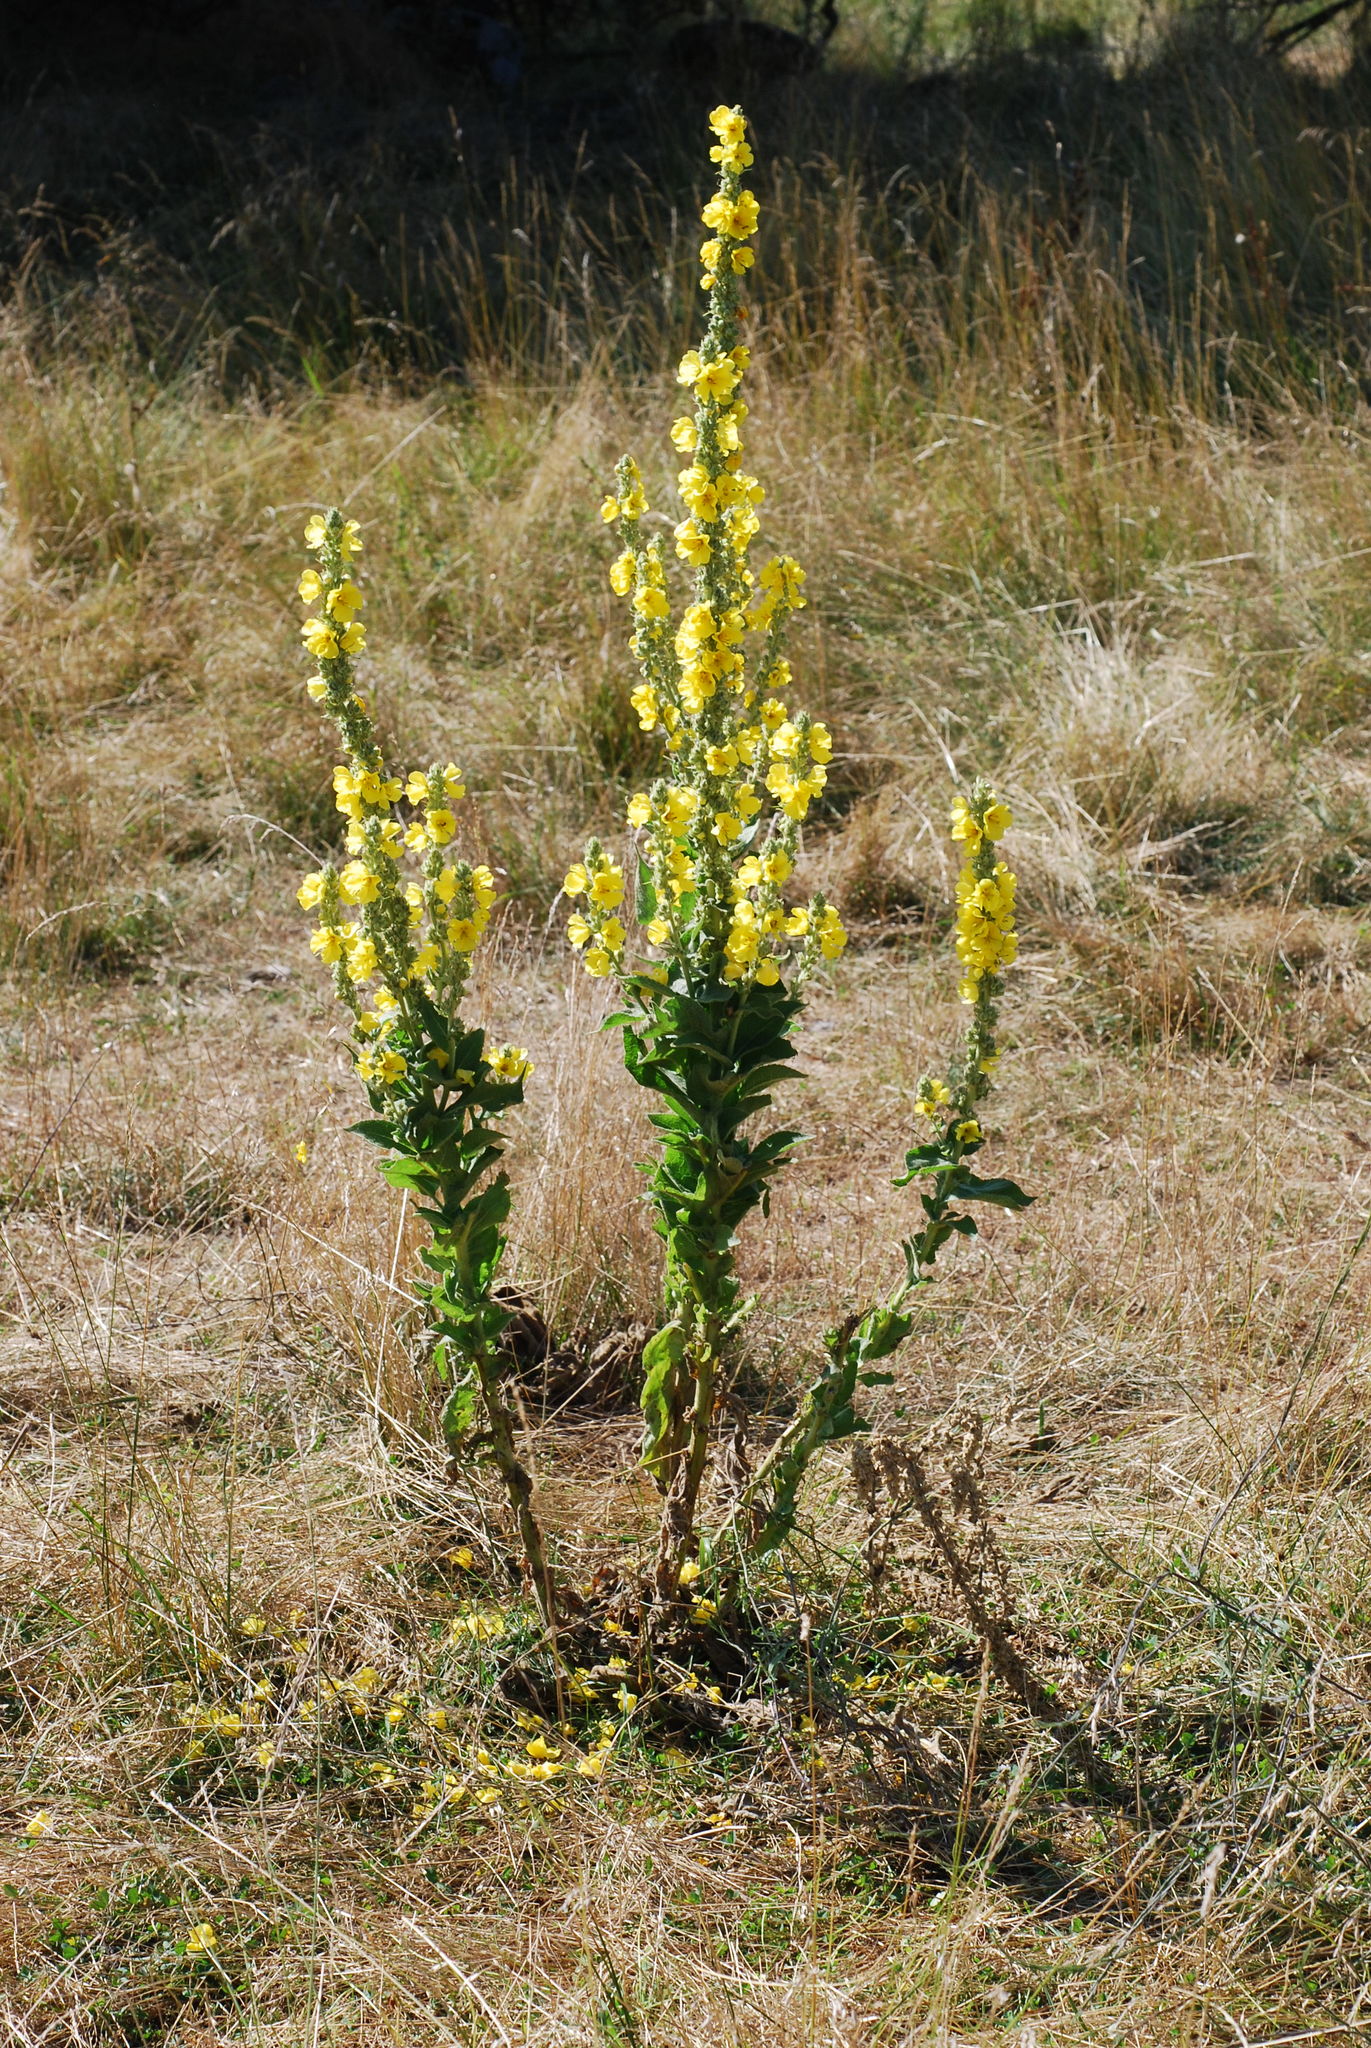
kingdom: Plantae
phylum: Tracheophyta
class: Magnoliopsida
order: Lamiales
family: Scrophulariaceae
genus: Verbascum
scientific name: Verbascum phlomoides
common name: Orange mullein
